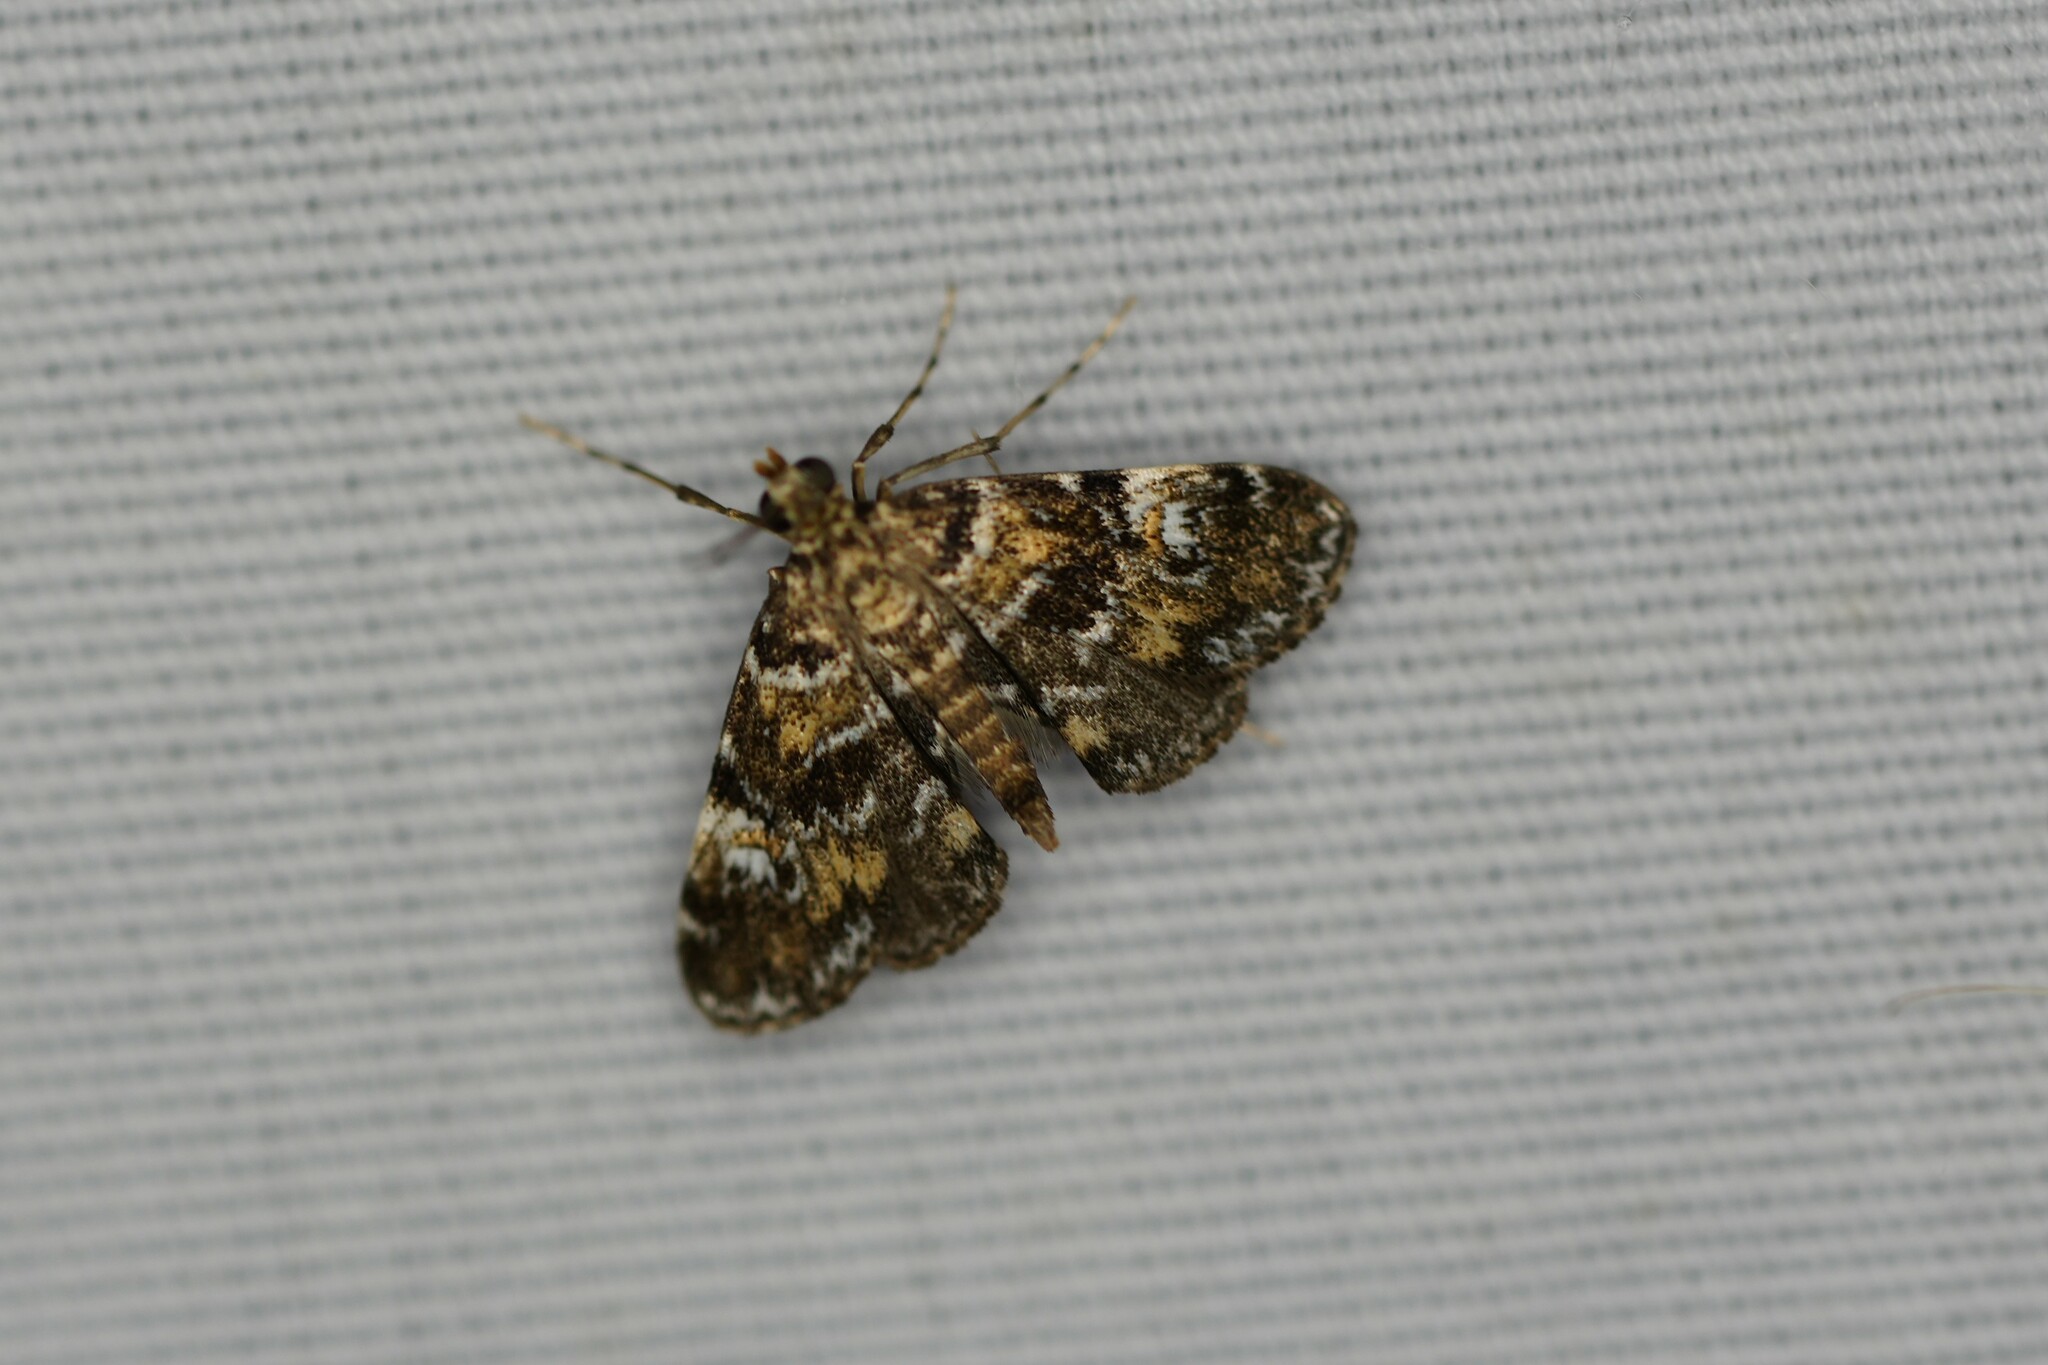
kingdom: Animalia
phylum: Arthropoda
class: Insecta
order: Lepidoptera
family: Crambidae
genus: Elophila
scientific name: Elophila obliteralis
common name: Waterlily leafcutter moth
